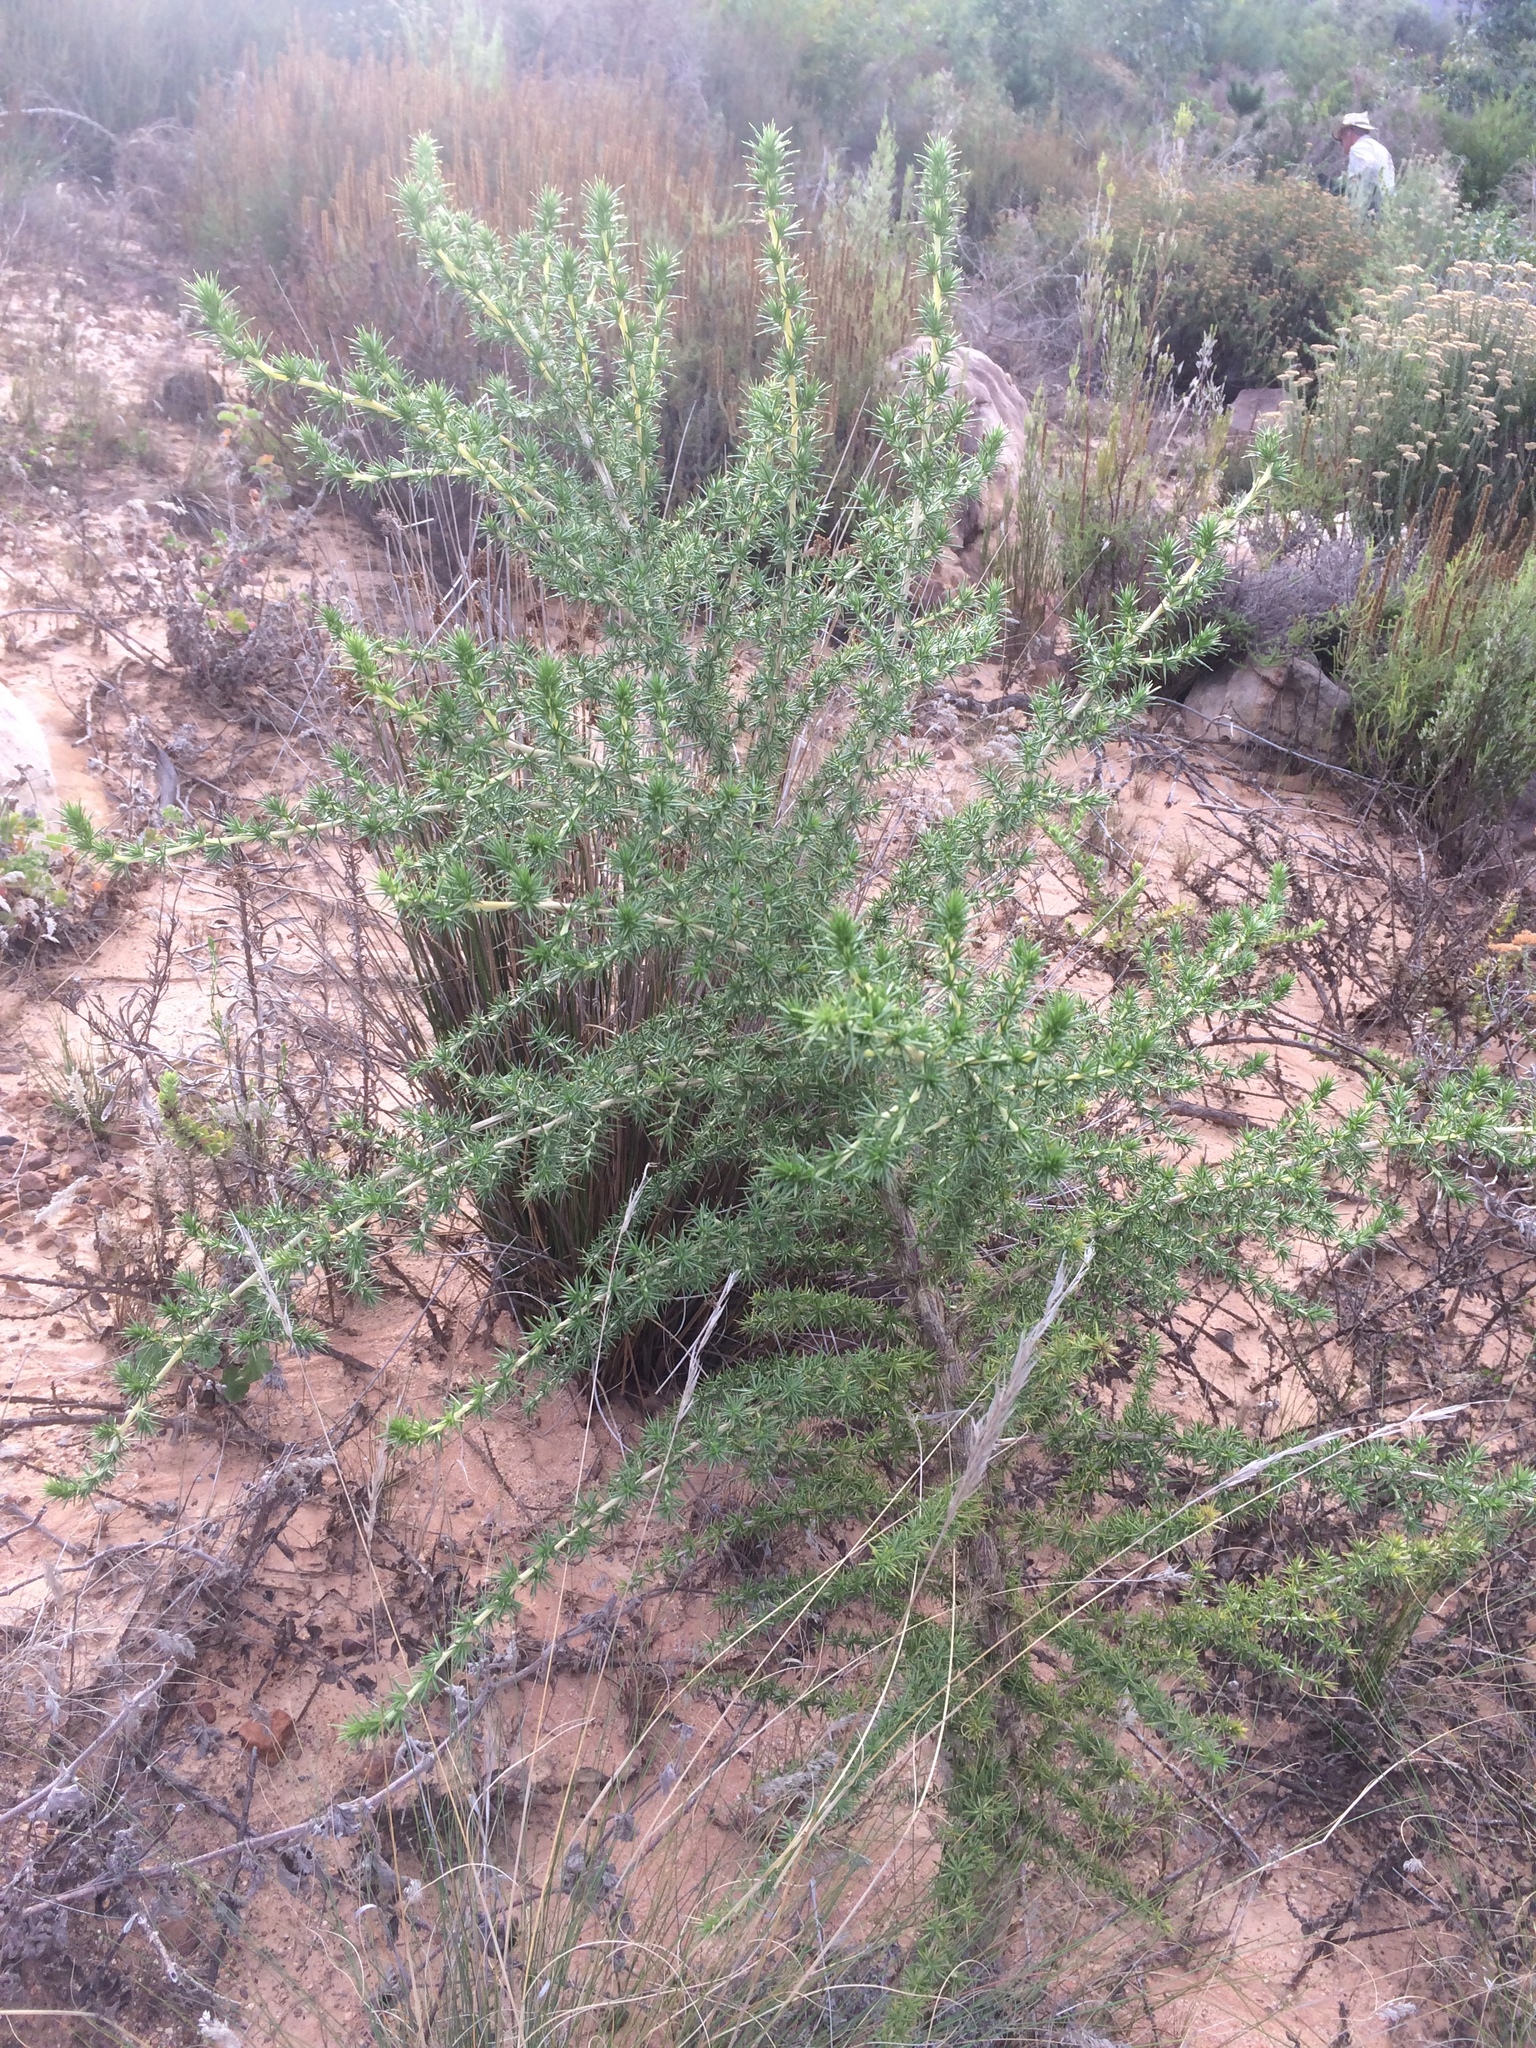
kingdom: Plantae
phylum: Tracheophyta
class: Magnoliopsida
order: Fabales
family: Fabaceae
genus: Aspalathus
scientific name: Aspalathus chenopoda
